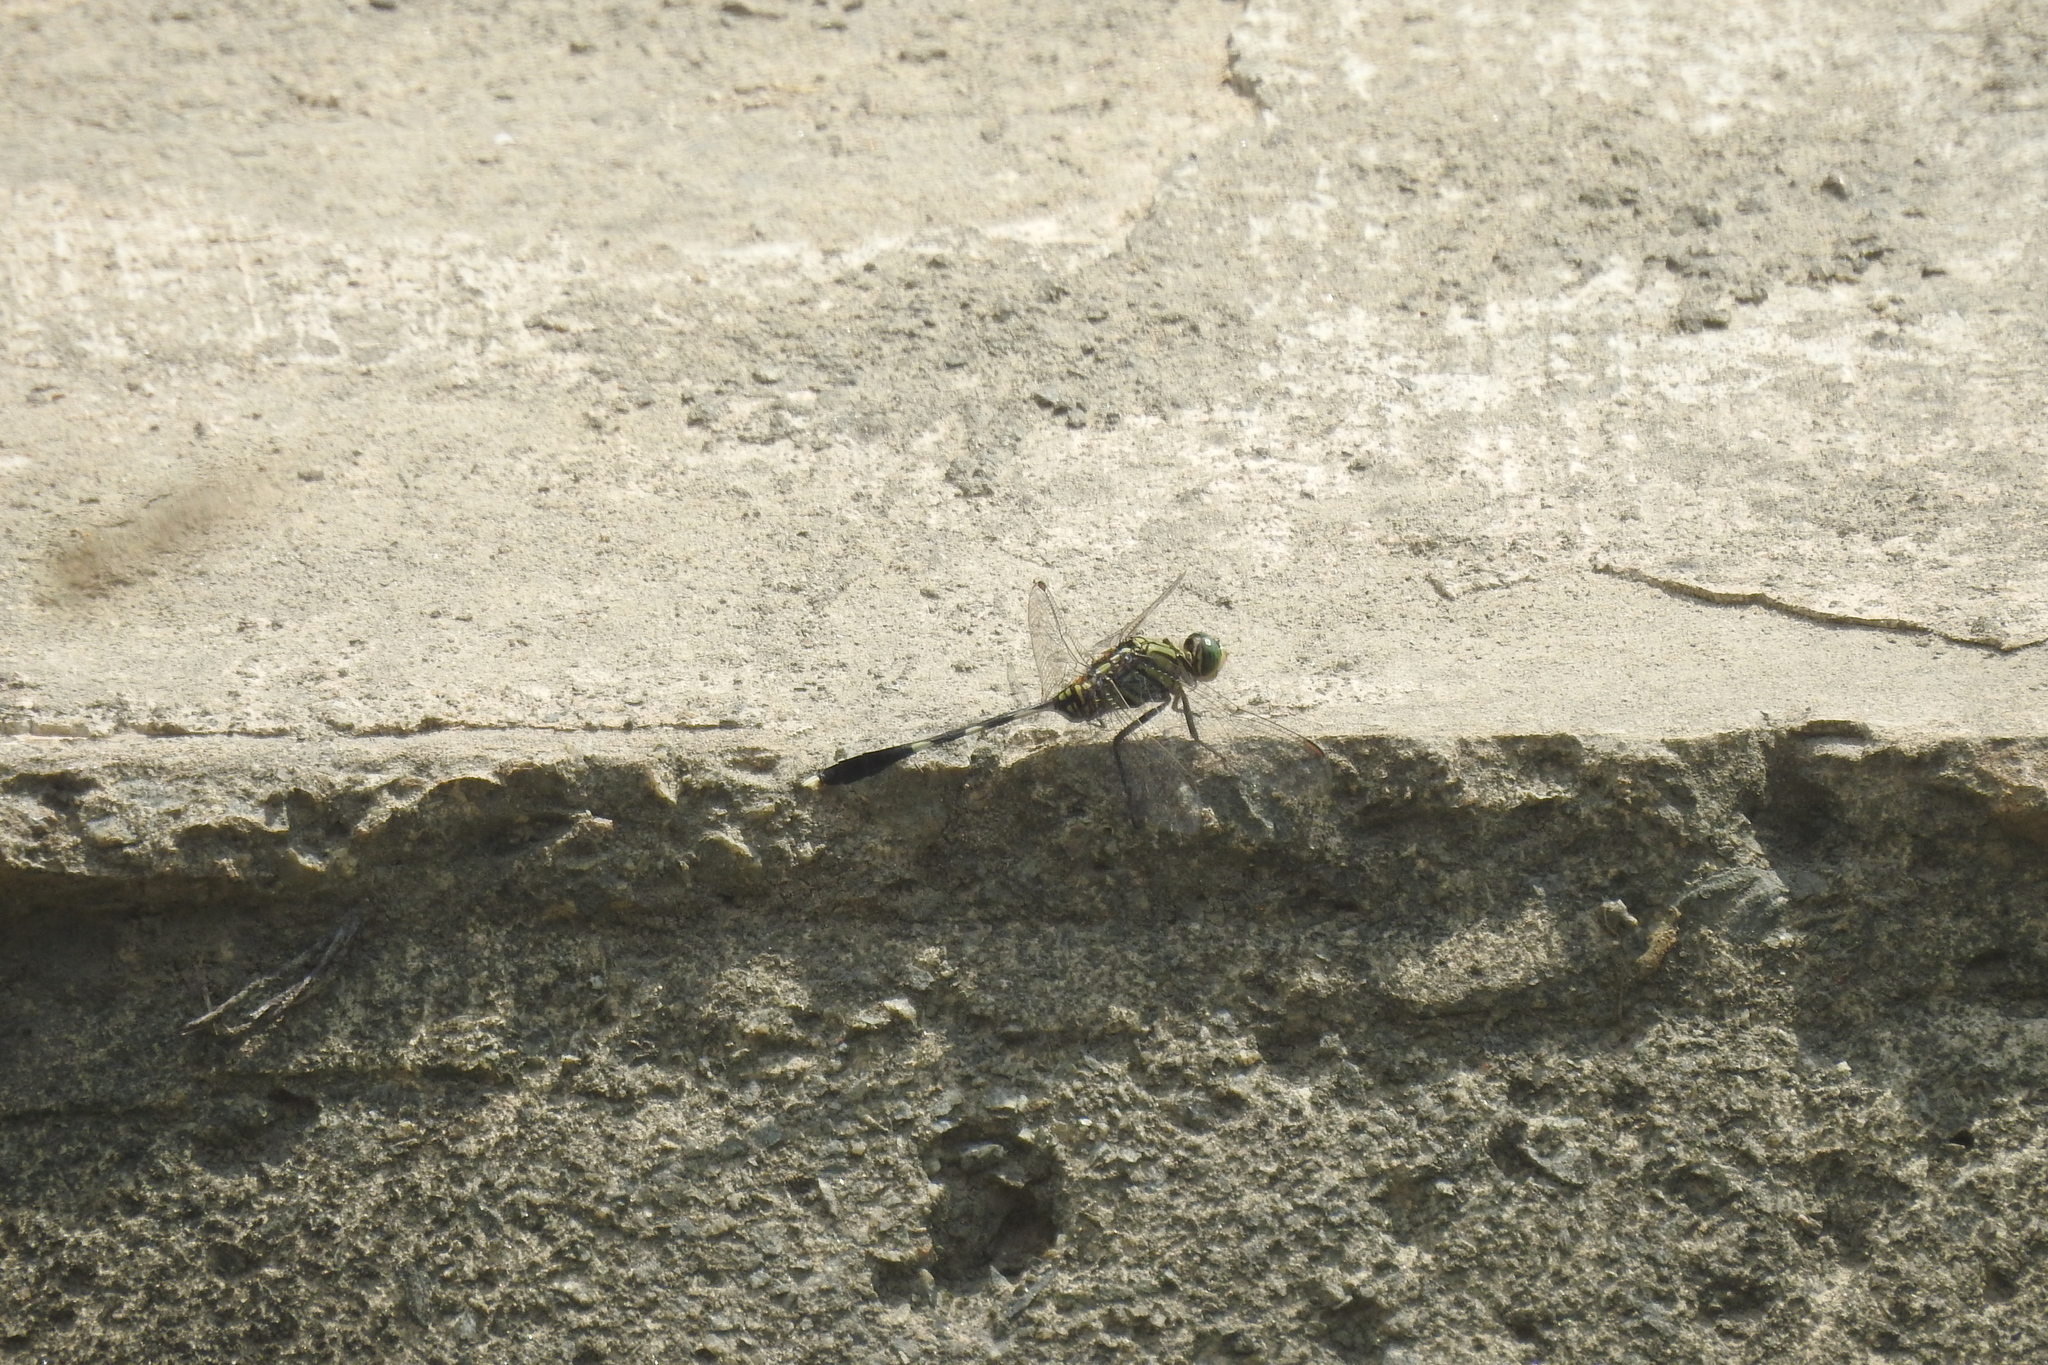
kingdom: Animalia
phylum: Arthropoda
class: Insecta
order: Odonata
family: Libellulidae
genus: Orthetrum
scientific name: Orthetrum sabina
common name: Slender skimmer
